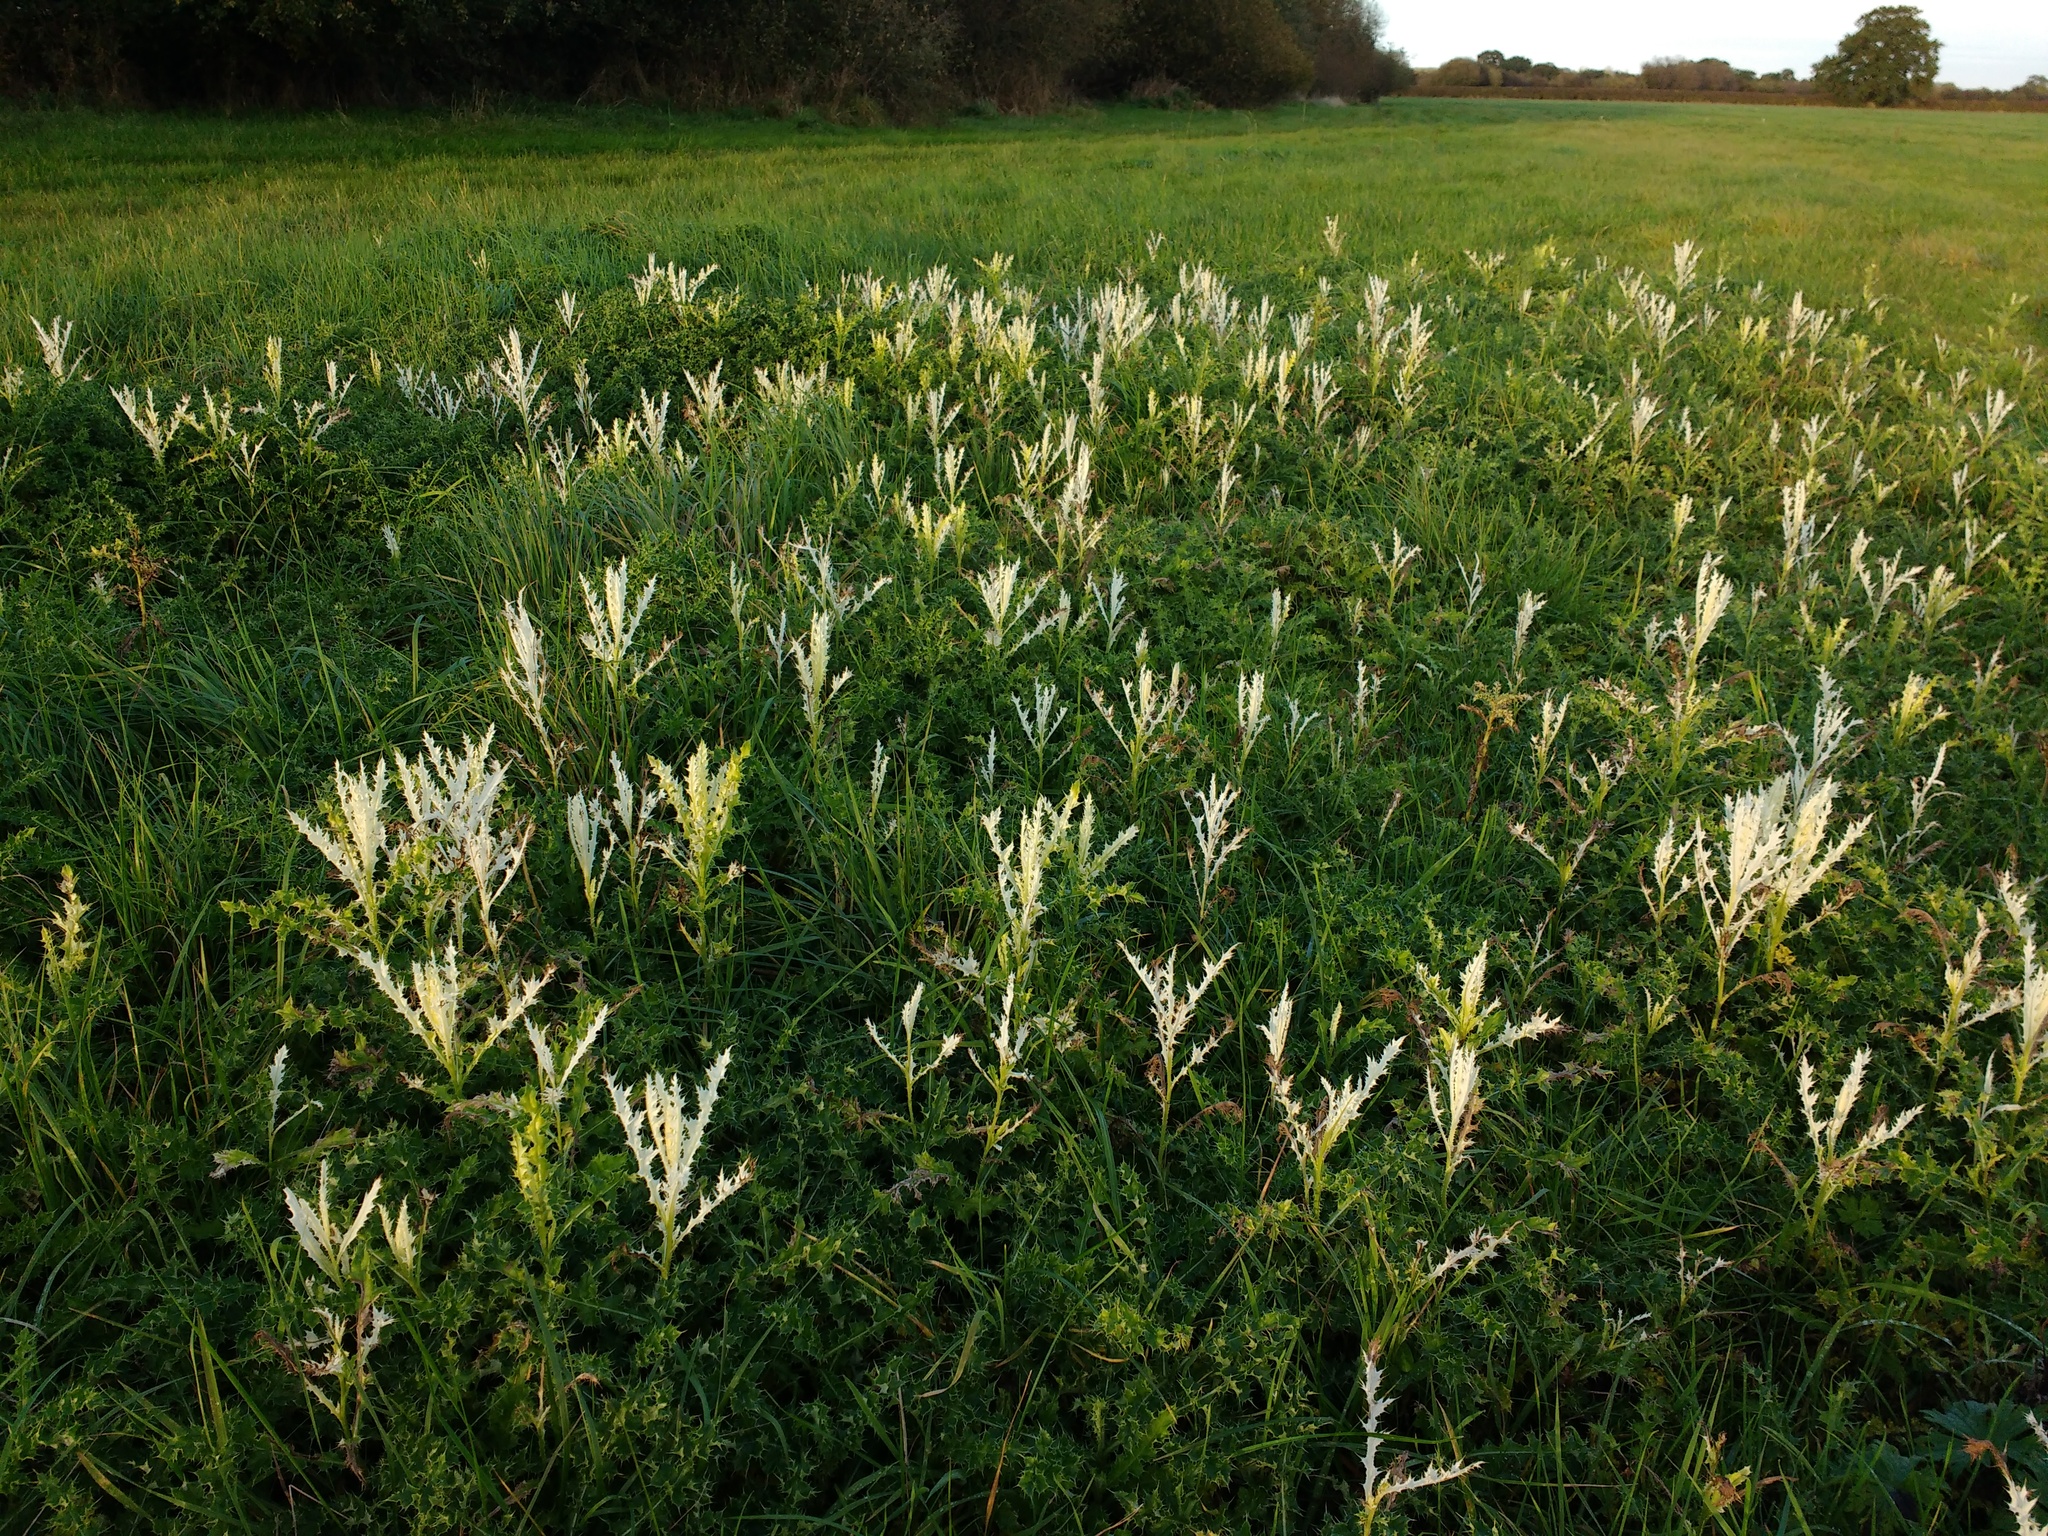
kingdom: Plantae
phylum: Tracheophyta
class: Magnoliopsida
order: Asterales
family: Asteraceae
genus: Cirsium
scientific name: Cirsium arvense
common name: Creeping thistle
